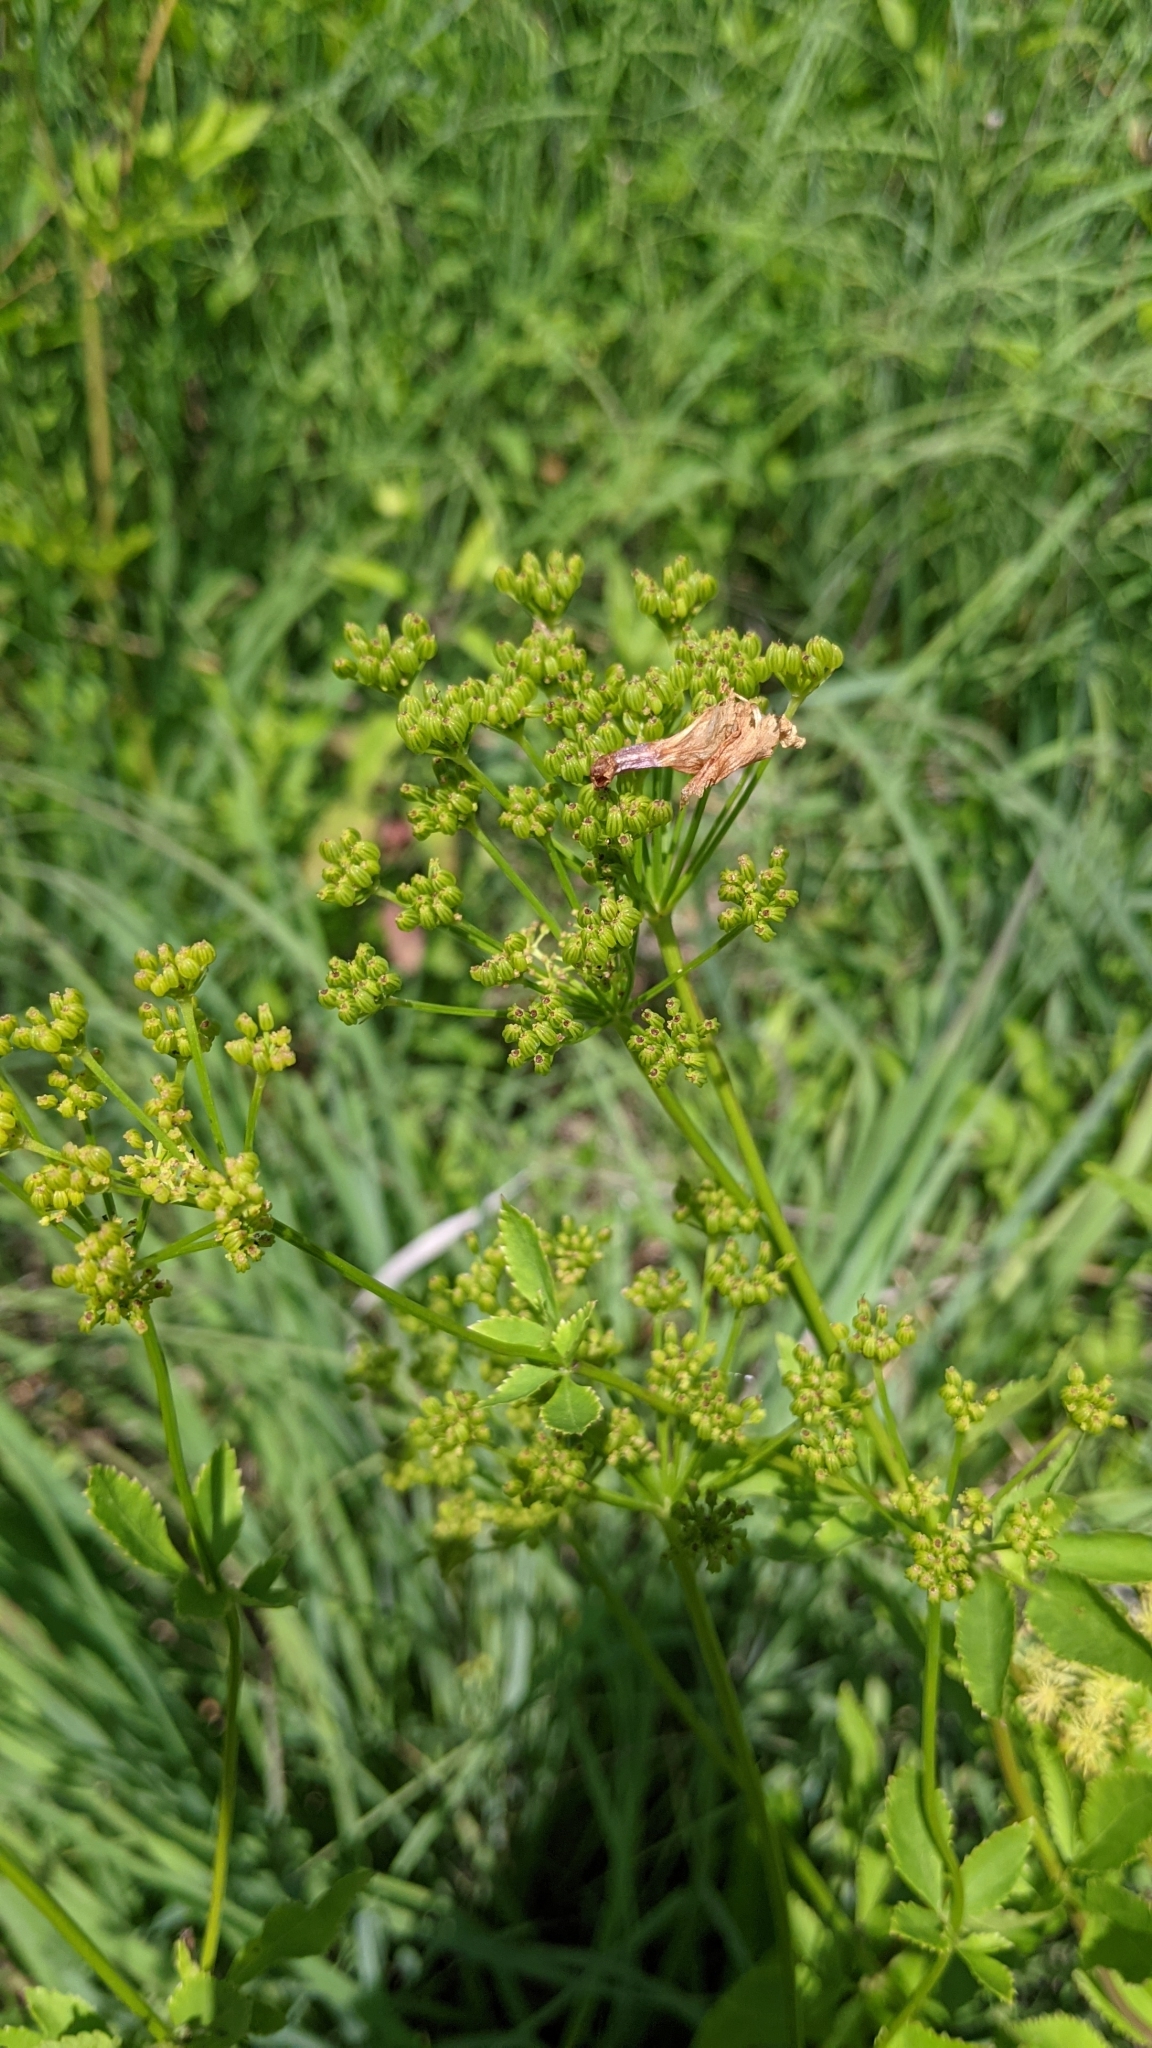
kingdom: Plantae
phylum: Tracheophyta
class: Magnoliopsida
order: Apiales
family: Apiaceae
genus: Zizia
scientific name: Zizia aurea
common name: Golden alexanders
